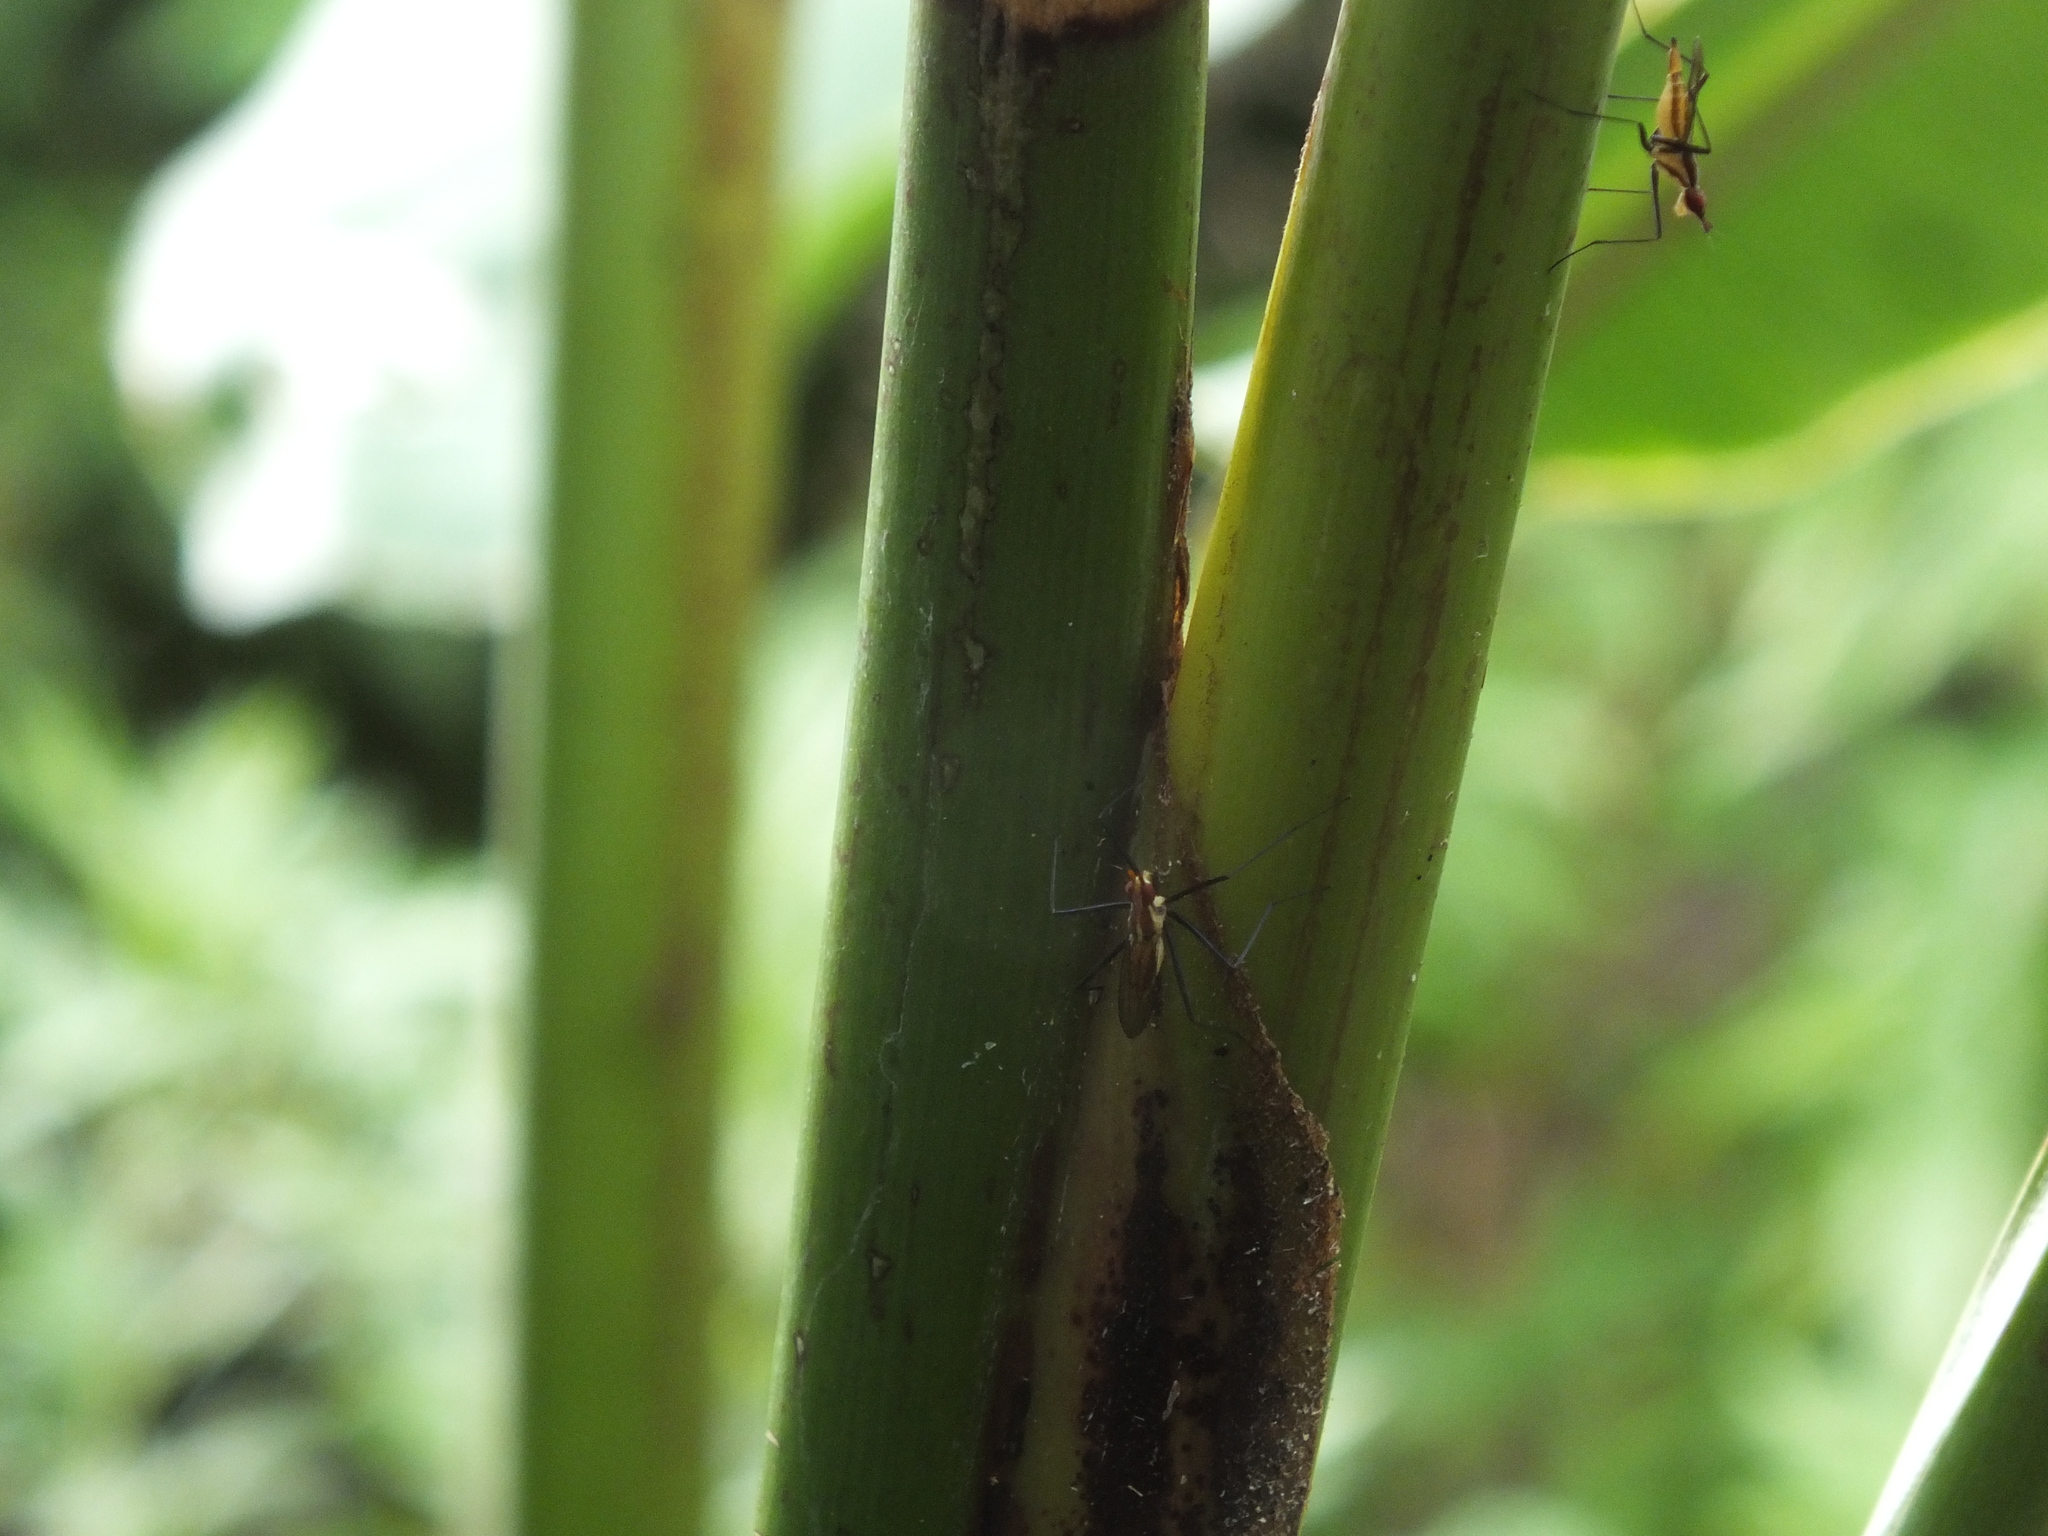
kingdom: Animalia
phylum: Arthropoda
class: Insecta
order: Diptera
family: Neriidae
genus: Telostylinus
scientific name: Telostylinus lineolatus
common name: Banana stalk fly
